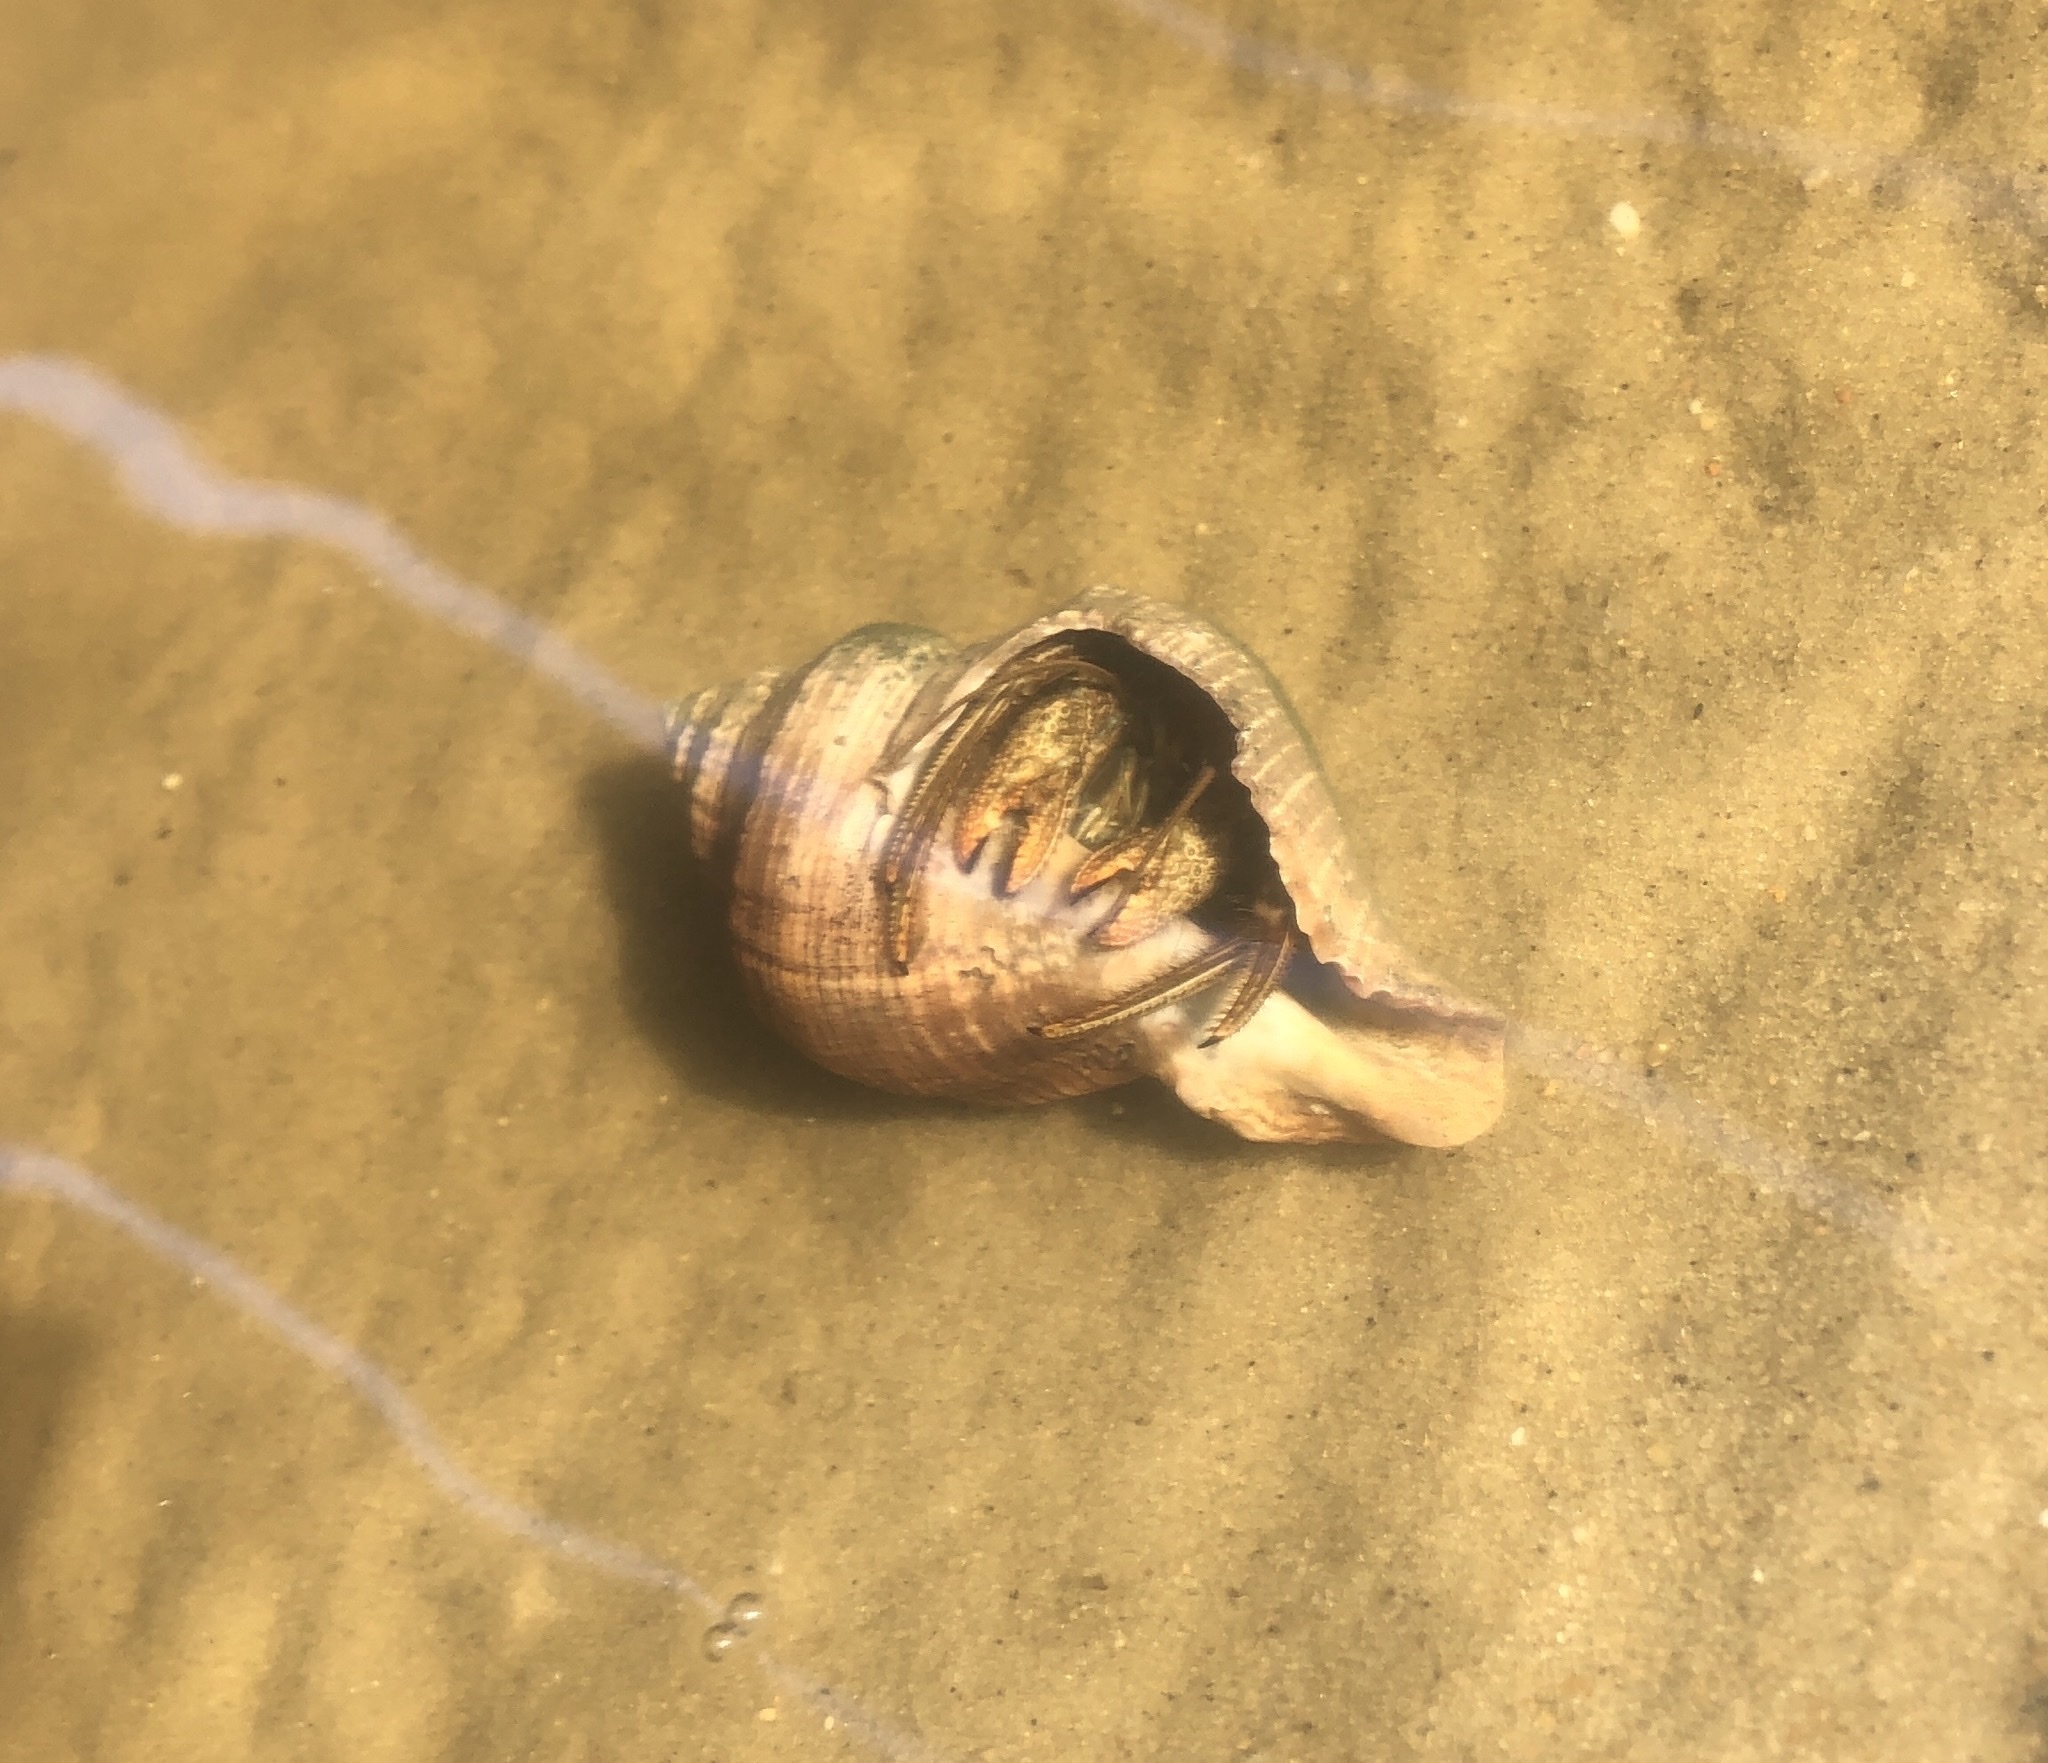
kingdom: Animalia
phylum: Arthropoda
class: Malacostraca
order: Decapoda
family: Diogenidae
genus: Clibanarius
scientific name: Clibanarius vittatus
